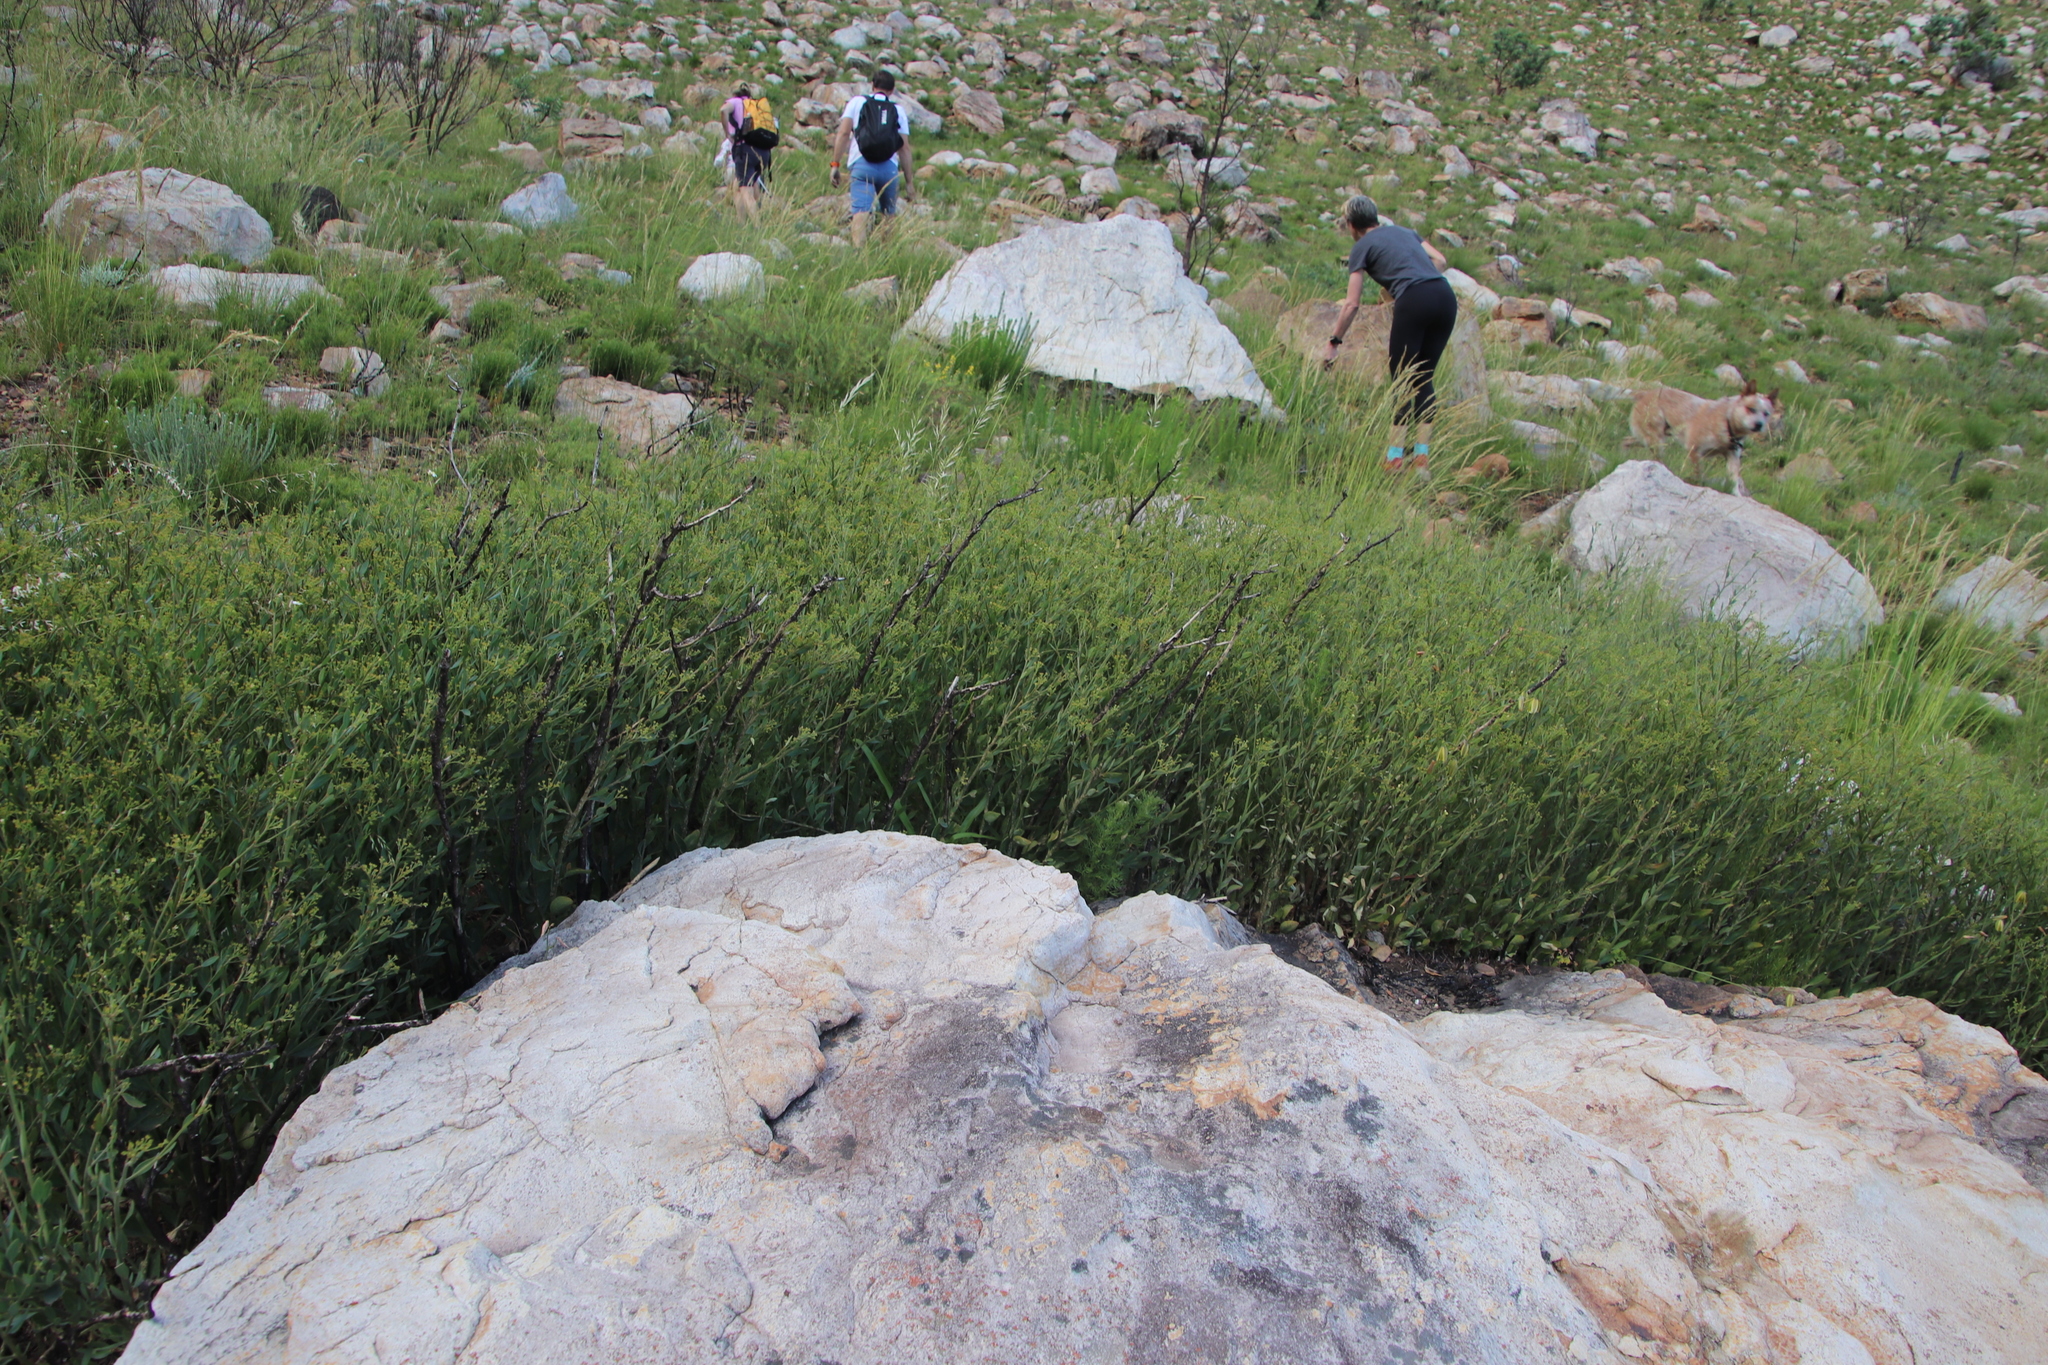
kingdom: Plantae
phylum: Tracheophyta
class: Magnoliopsida
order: Solanales
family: Montiniaceae
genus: Montinia
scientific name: Montinia caryophyllacea
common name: Wild clove-bush
